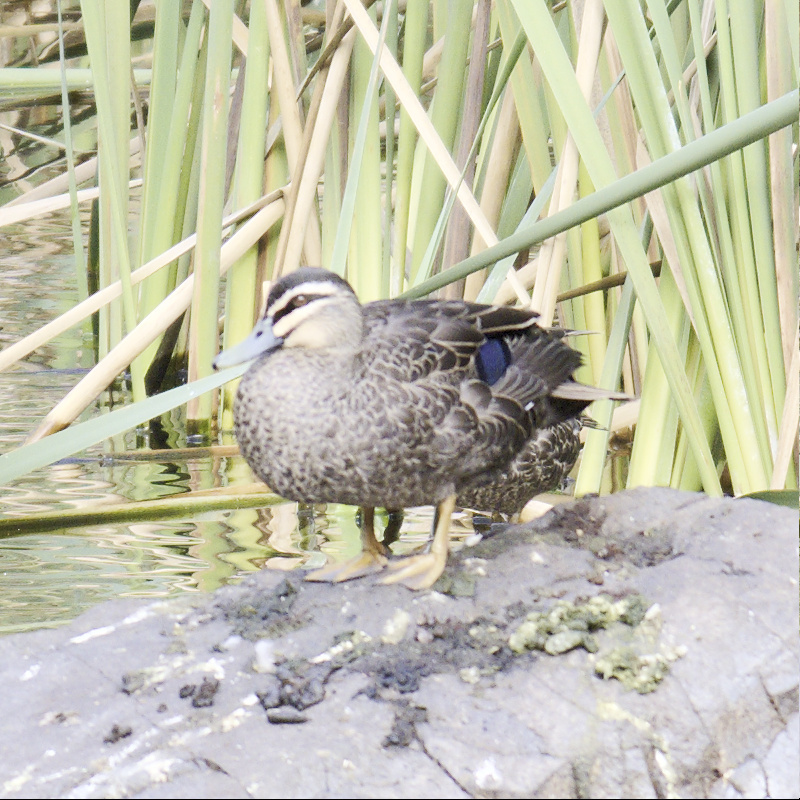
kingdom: Animalia
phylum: Chordata
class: Aves
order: Anseriformes
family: Anatidae
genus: Anas
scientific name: Anas superciliosa
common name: Pacific black duck
